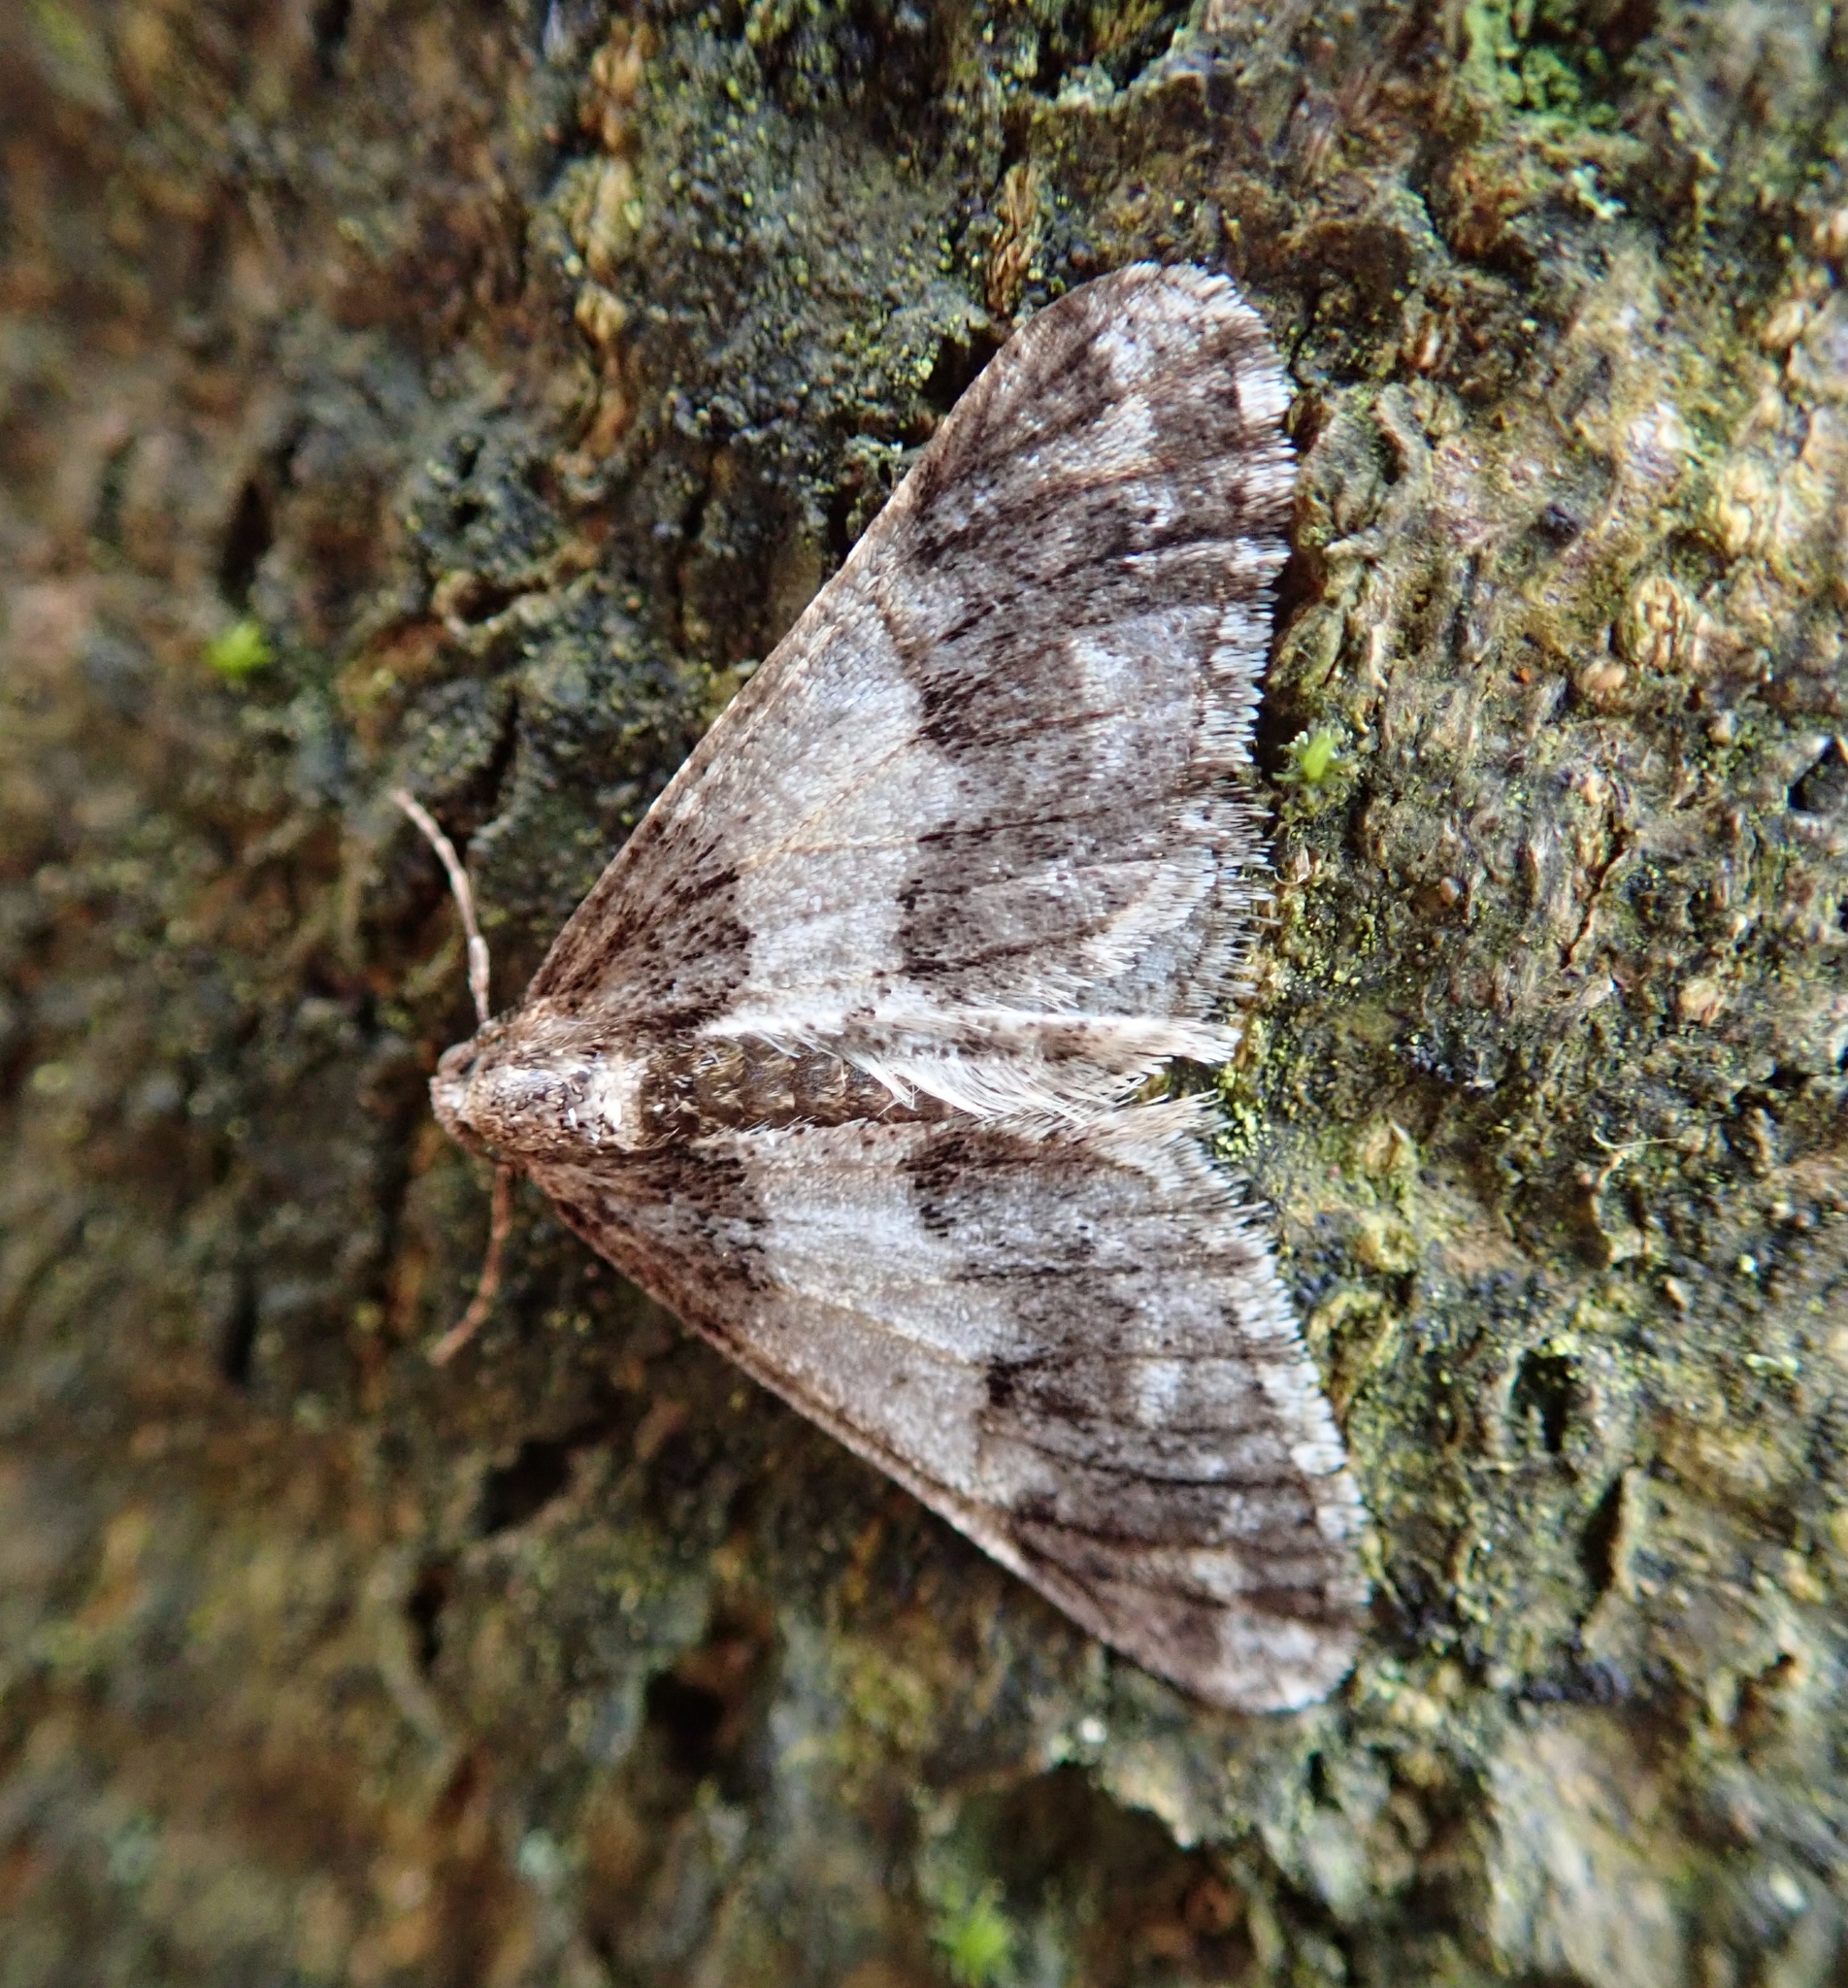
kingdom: Animalia
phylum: Arthropoda
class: Insecta
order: Lepidoptera
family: Geometridae
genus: Agriopis
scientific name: Agriopis leucophaearia
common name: Spring usher
